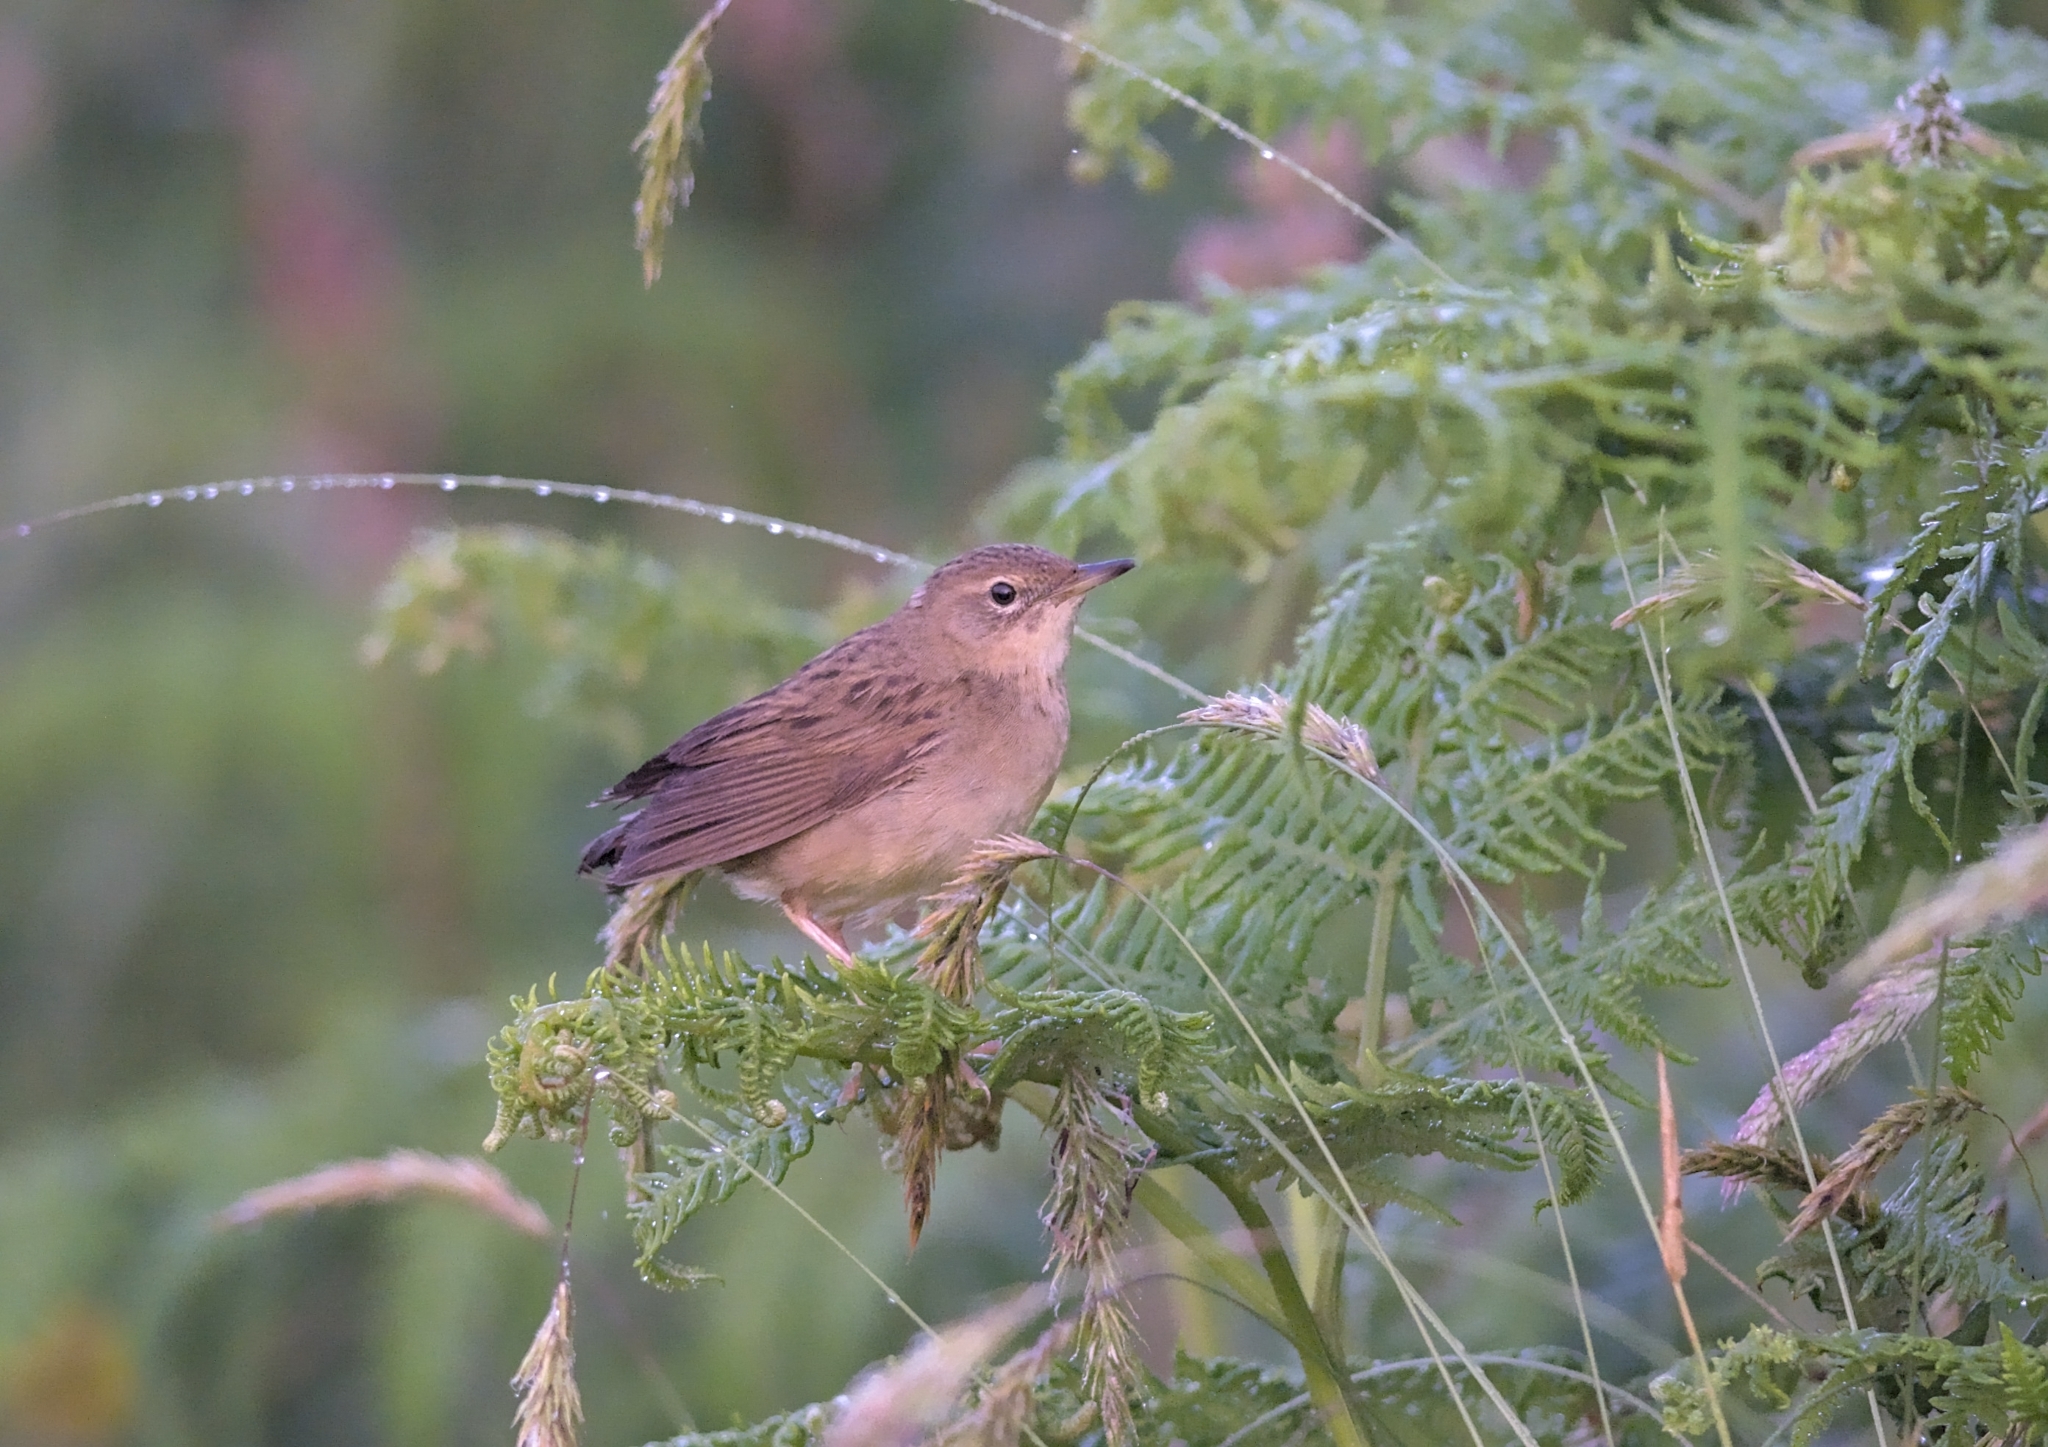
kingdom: Animalia
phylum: Chordata
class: Aves
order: Passeriformes
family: Locustellidae
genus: Locustella
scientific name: Locustella naevia
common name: Common grasshopper warbler
